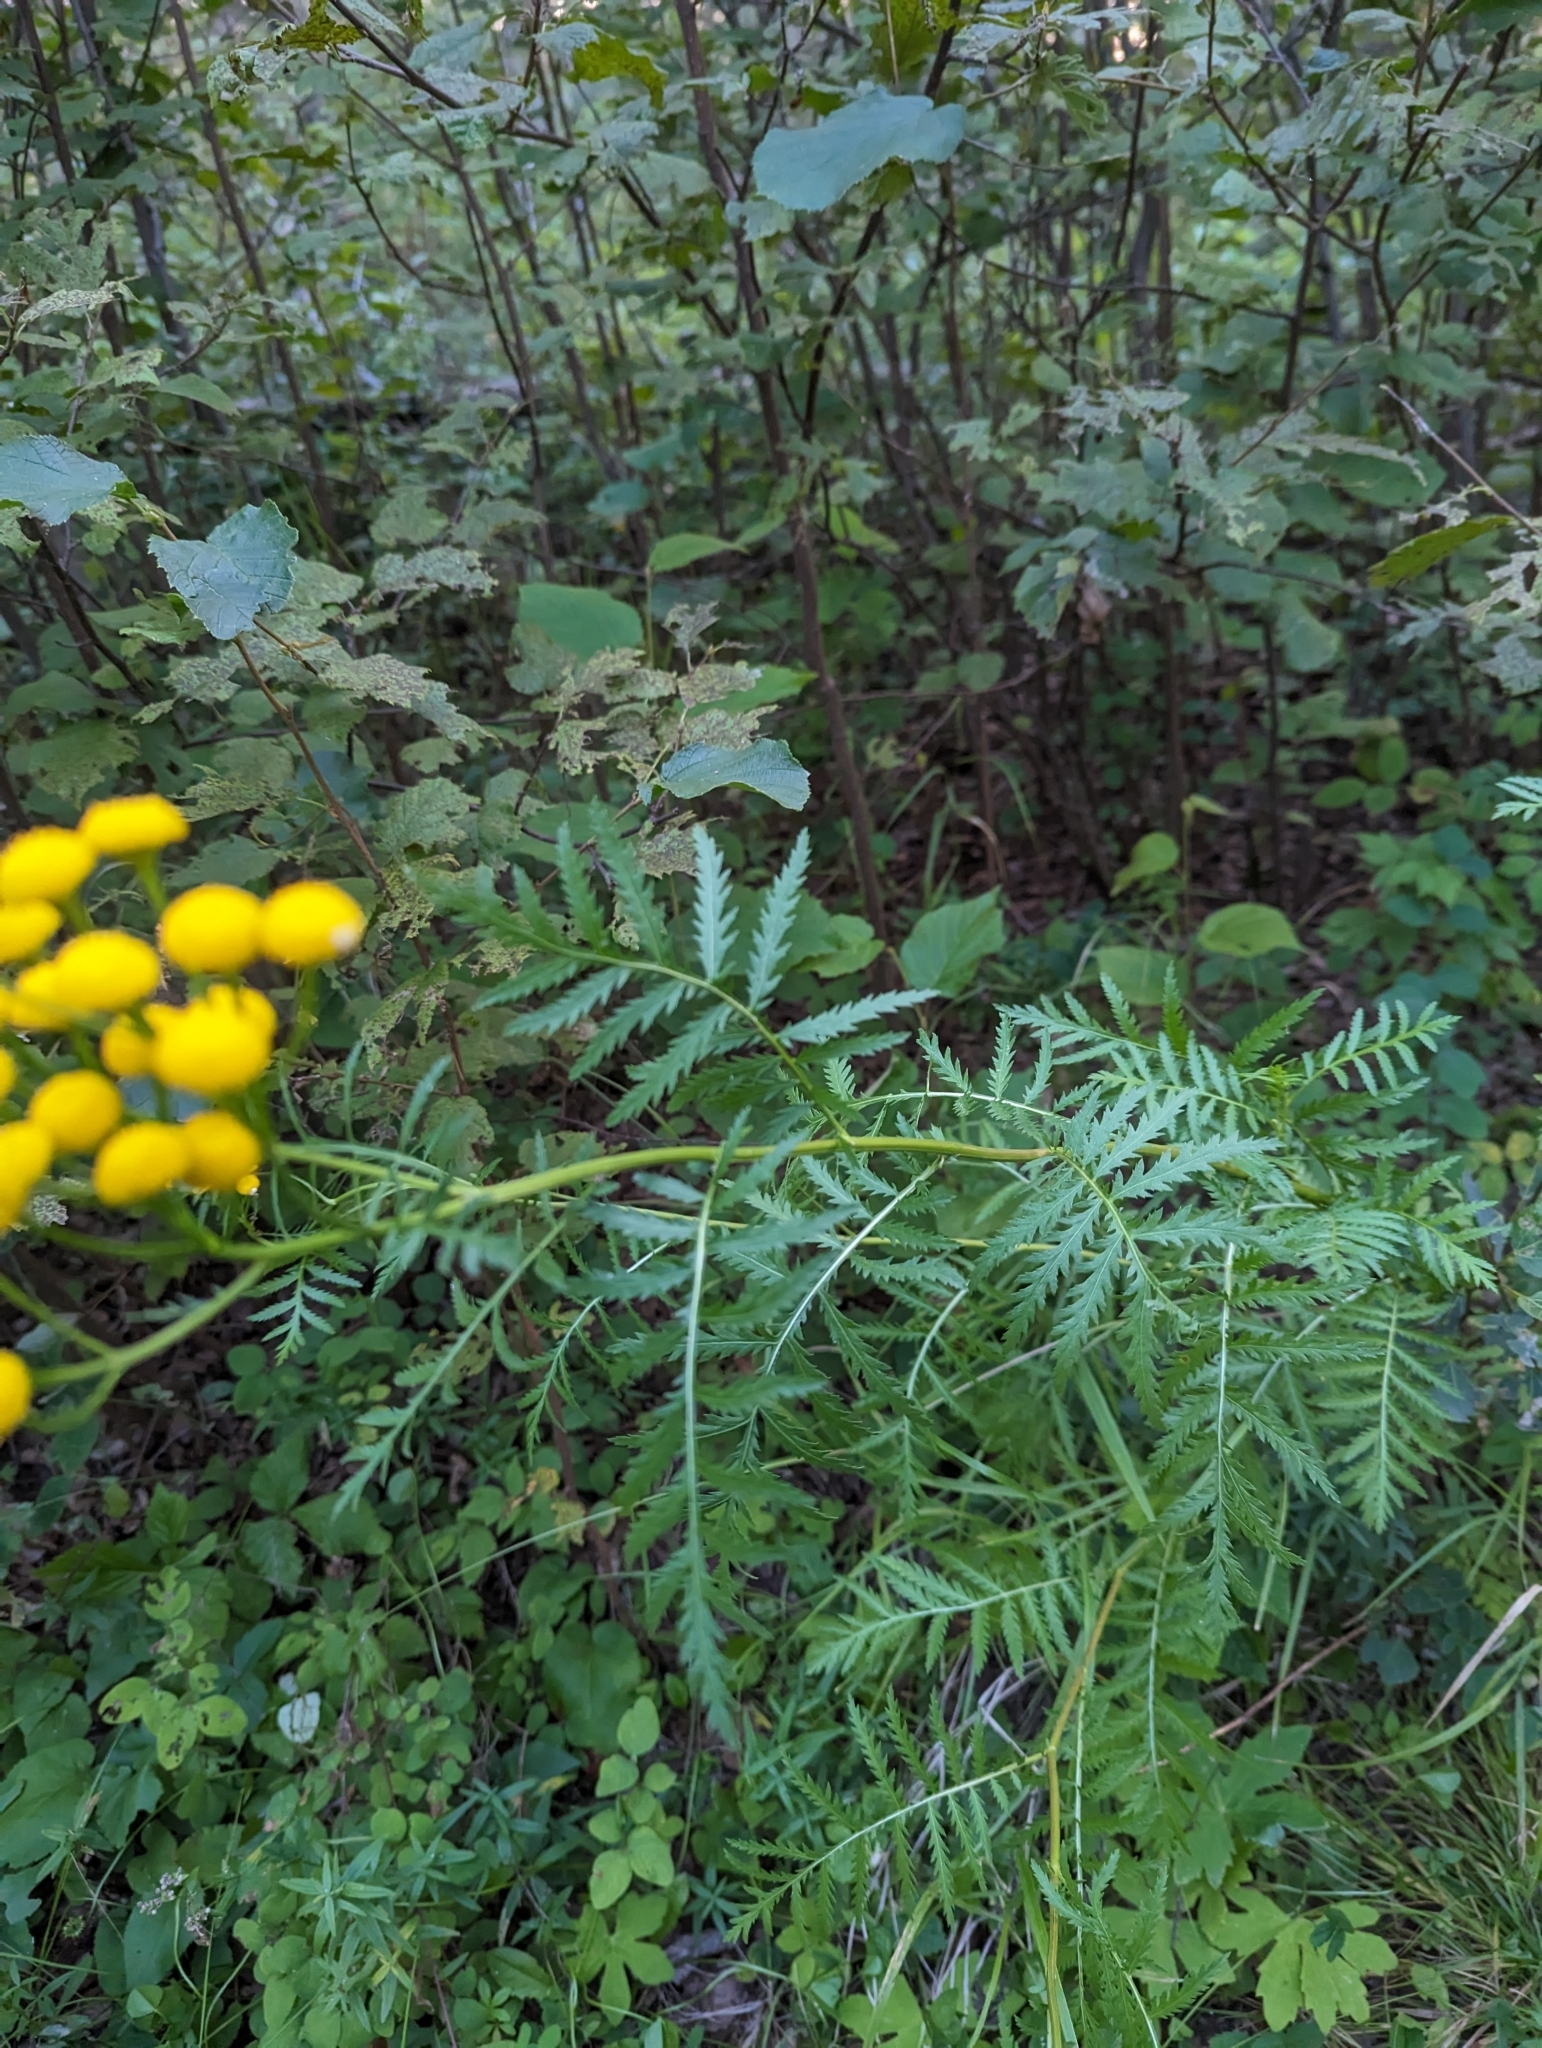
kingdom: Plantae
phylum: Tracheophyta
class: Magnoliopsida
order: Asterales
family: Asteraceae
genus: Tanacetum
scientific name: Tanacetum vulgare
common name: Common tansy
